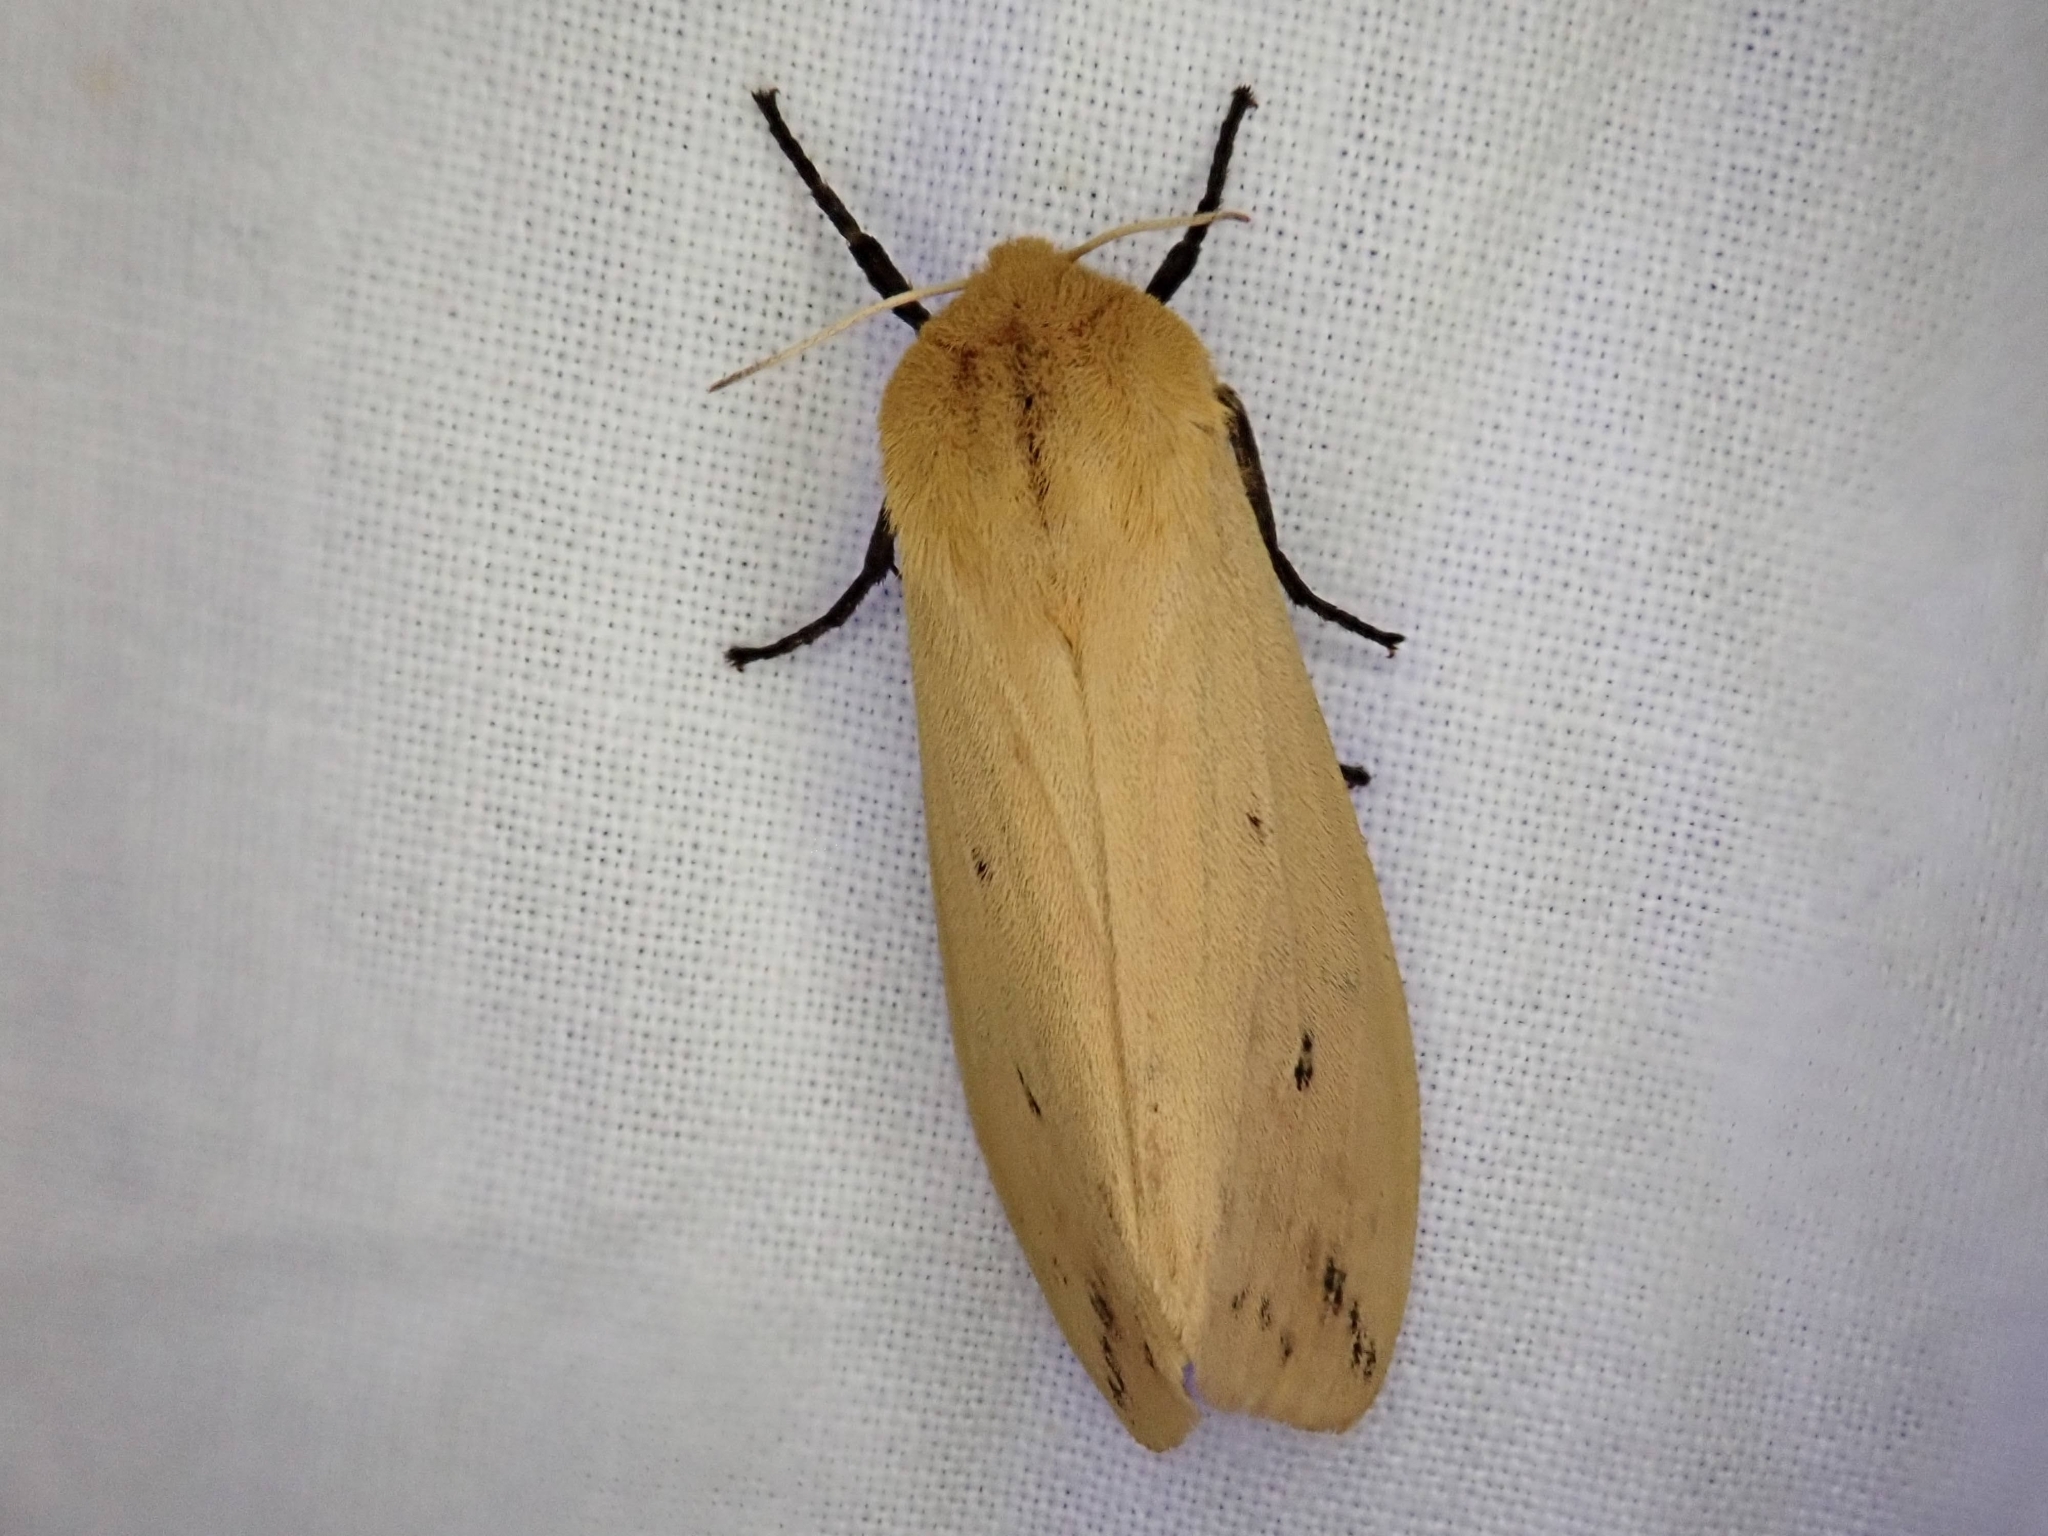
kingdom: Animalia
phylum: Arthropoda
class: Insecta
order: Lepidoptera
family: Erebidae
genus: Pyrrharctia
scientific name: Pyrrharctia isabella
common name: Isabella tiger moth
